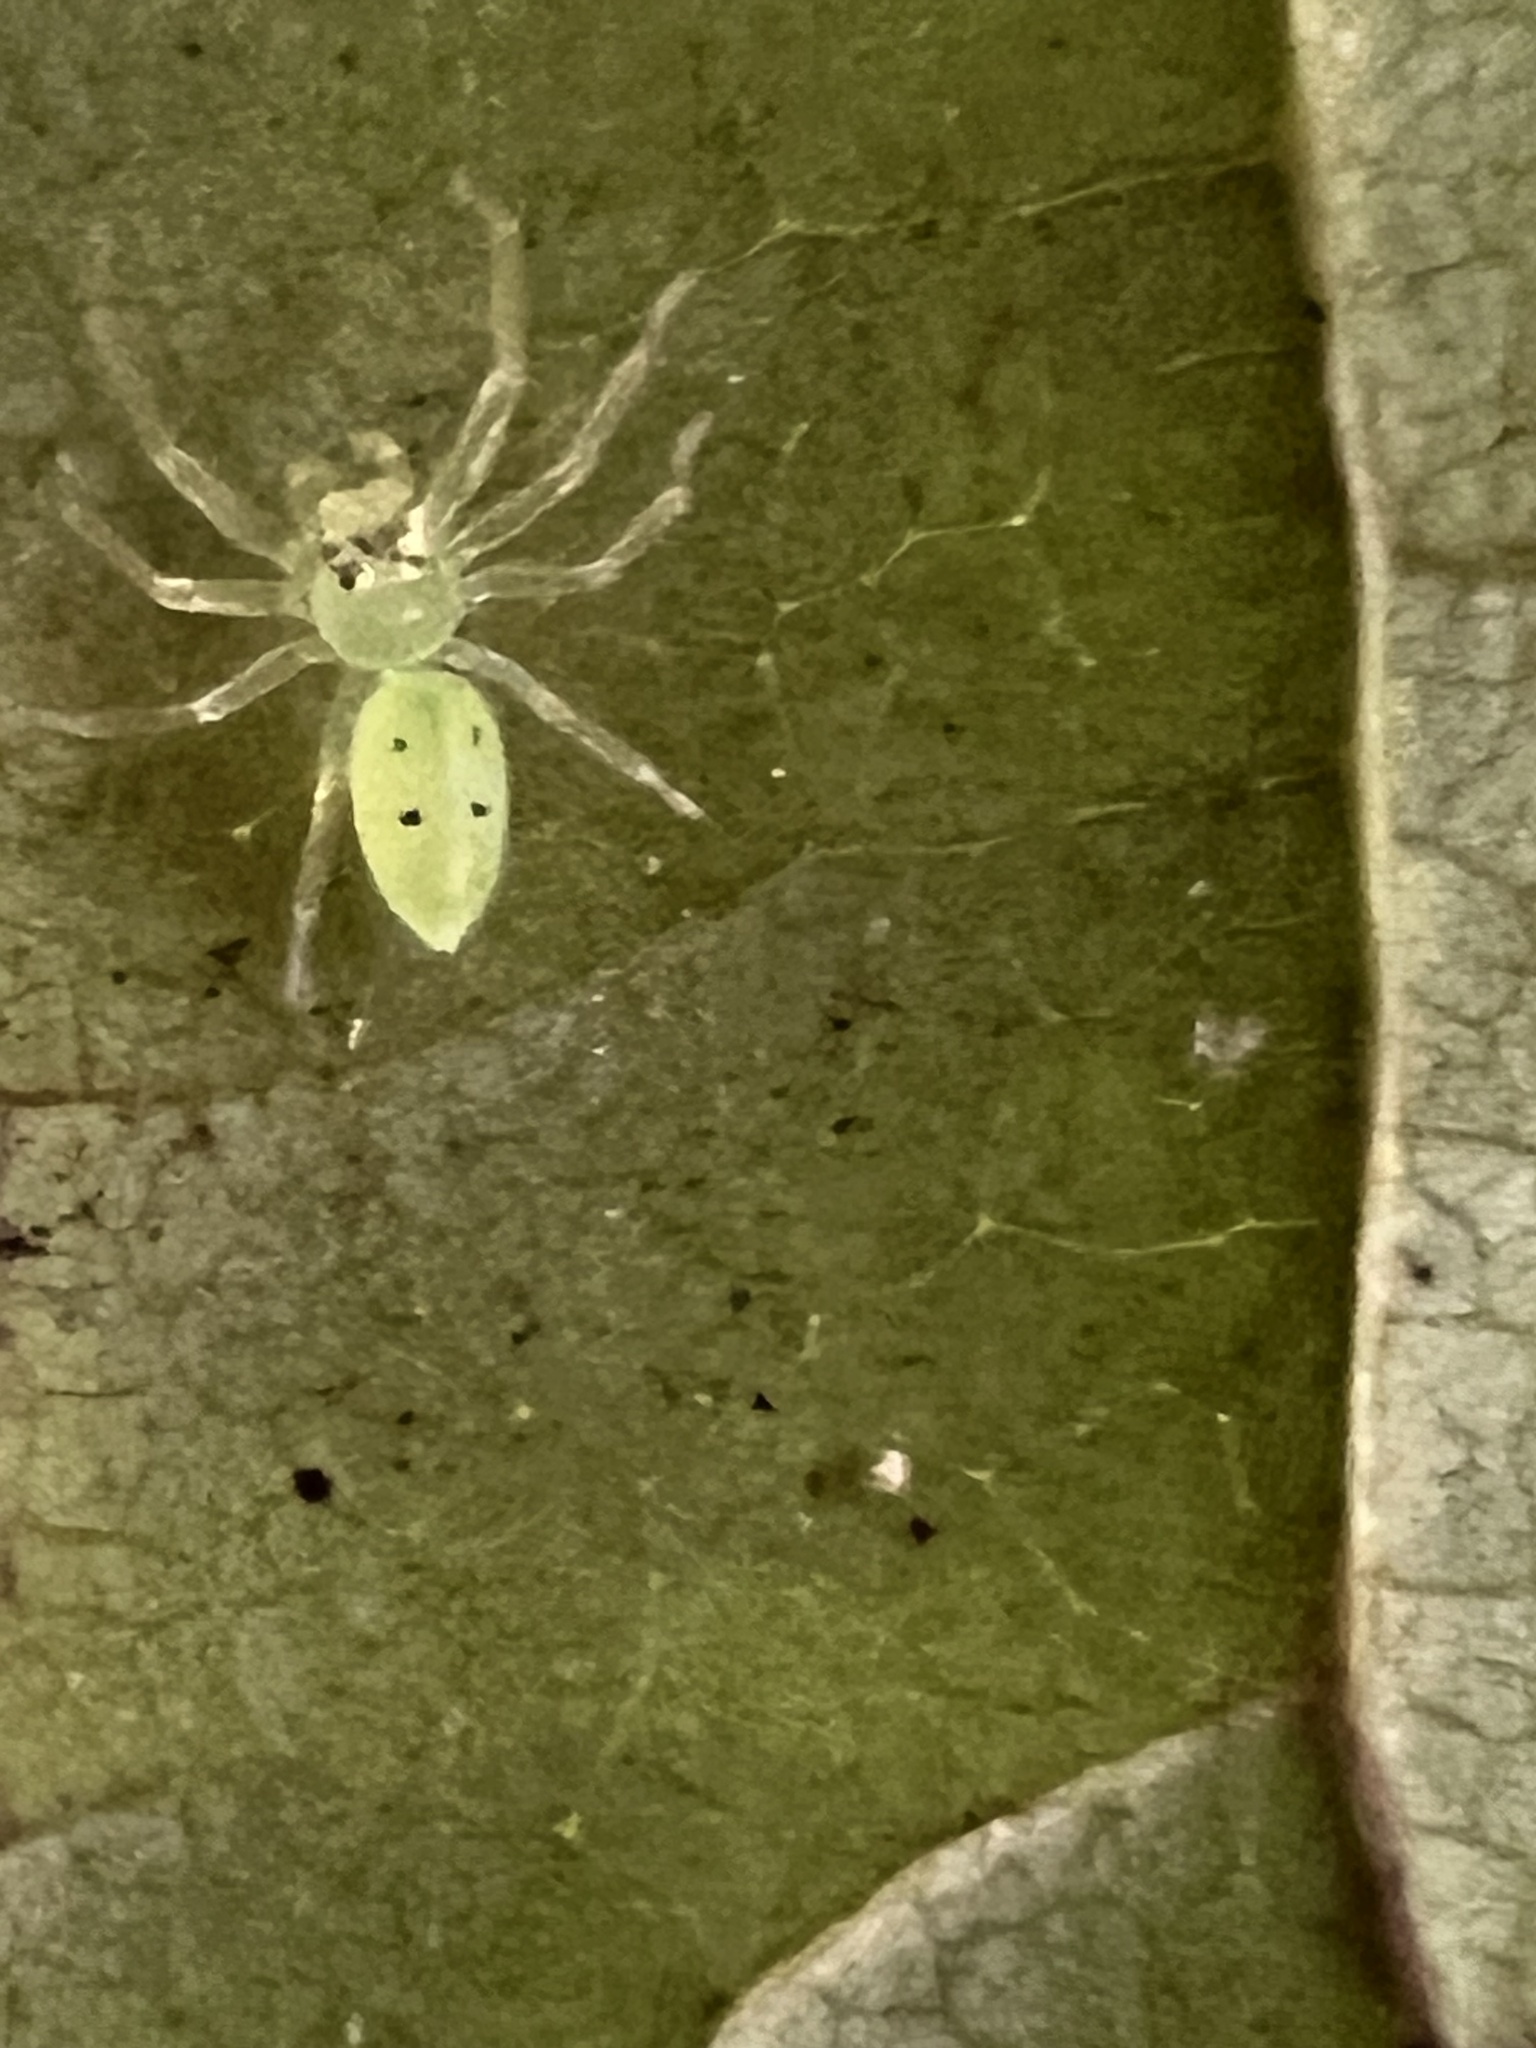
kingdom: Animalia
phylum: Arthropoda
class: Arachnida
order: Araneae
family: Salticidae
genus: Lyssomanes
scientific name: Lyssomanes viridis
